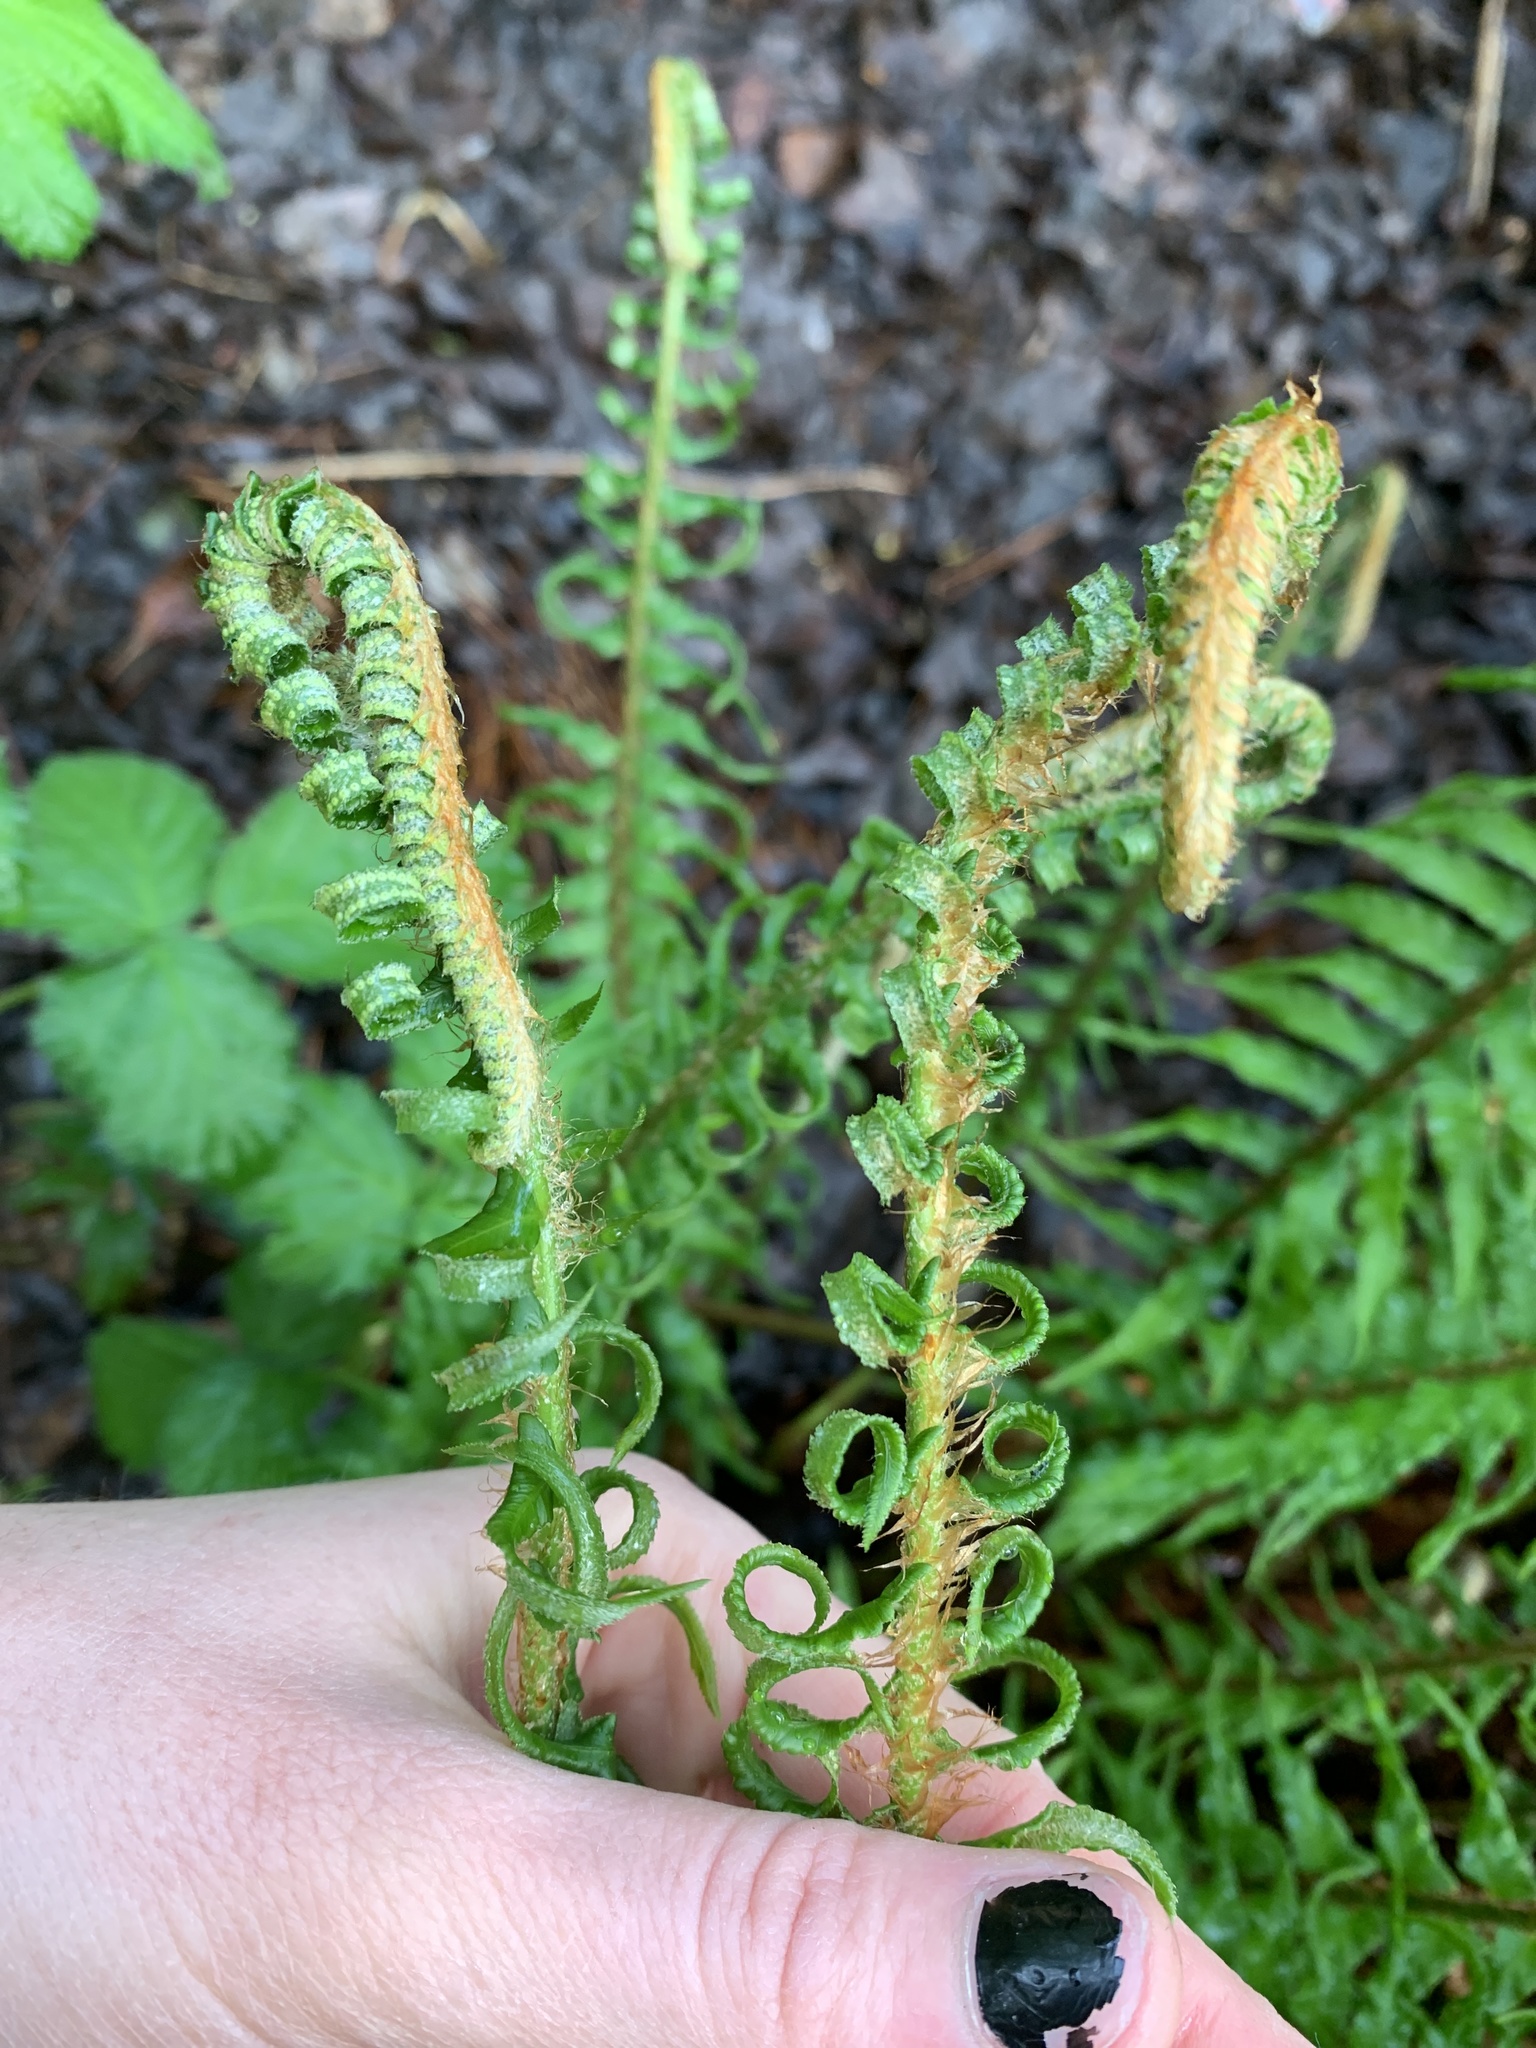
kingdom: Plantae
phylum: Tracheophyta
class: Polypodiopsida
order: Polypodiales
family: Dryopteridaceae
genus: Polystichum
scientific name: Polystichum munitum
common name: Western sword-fern
